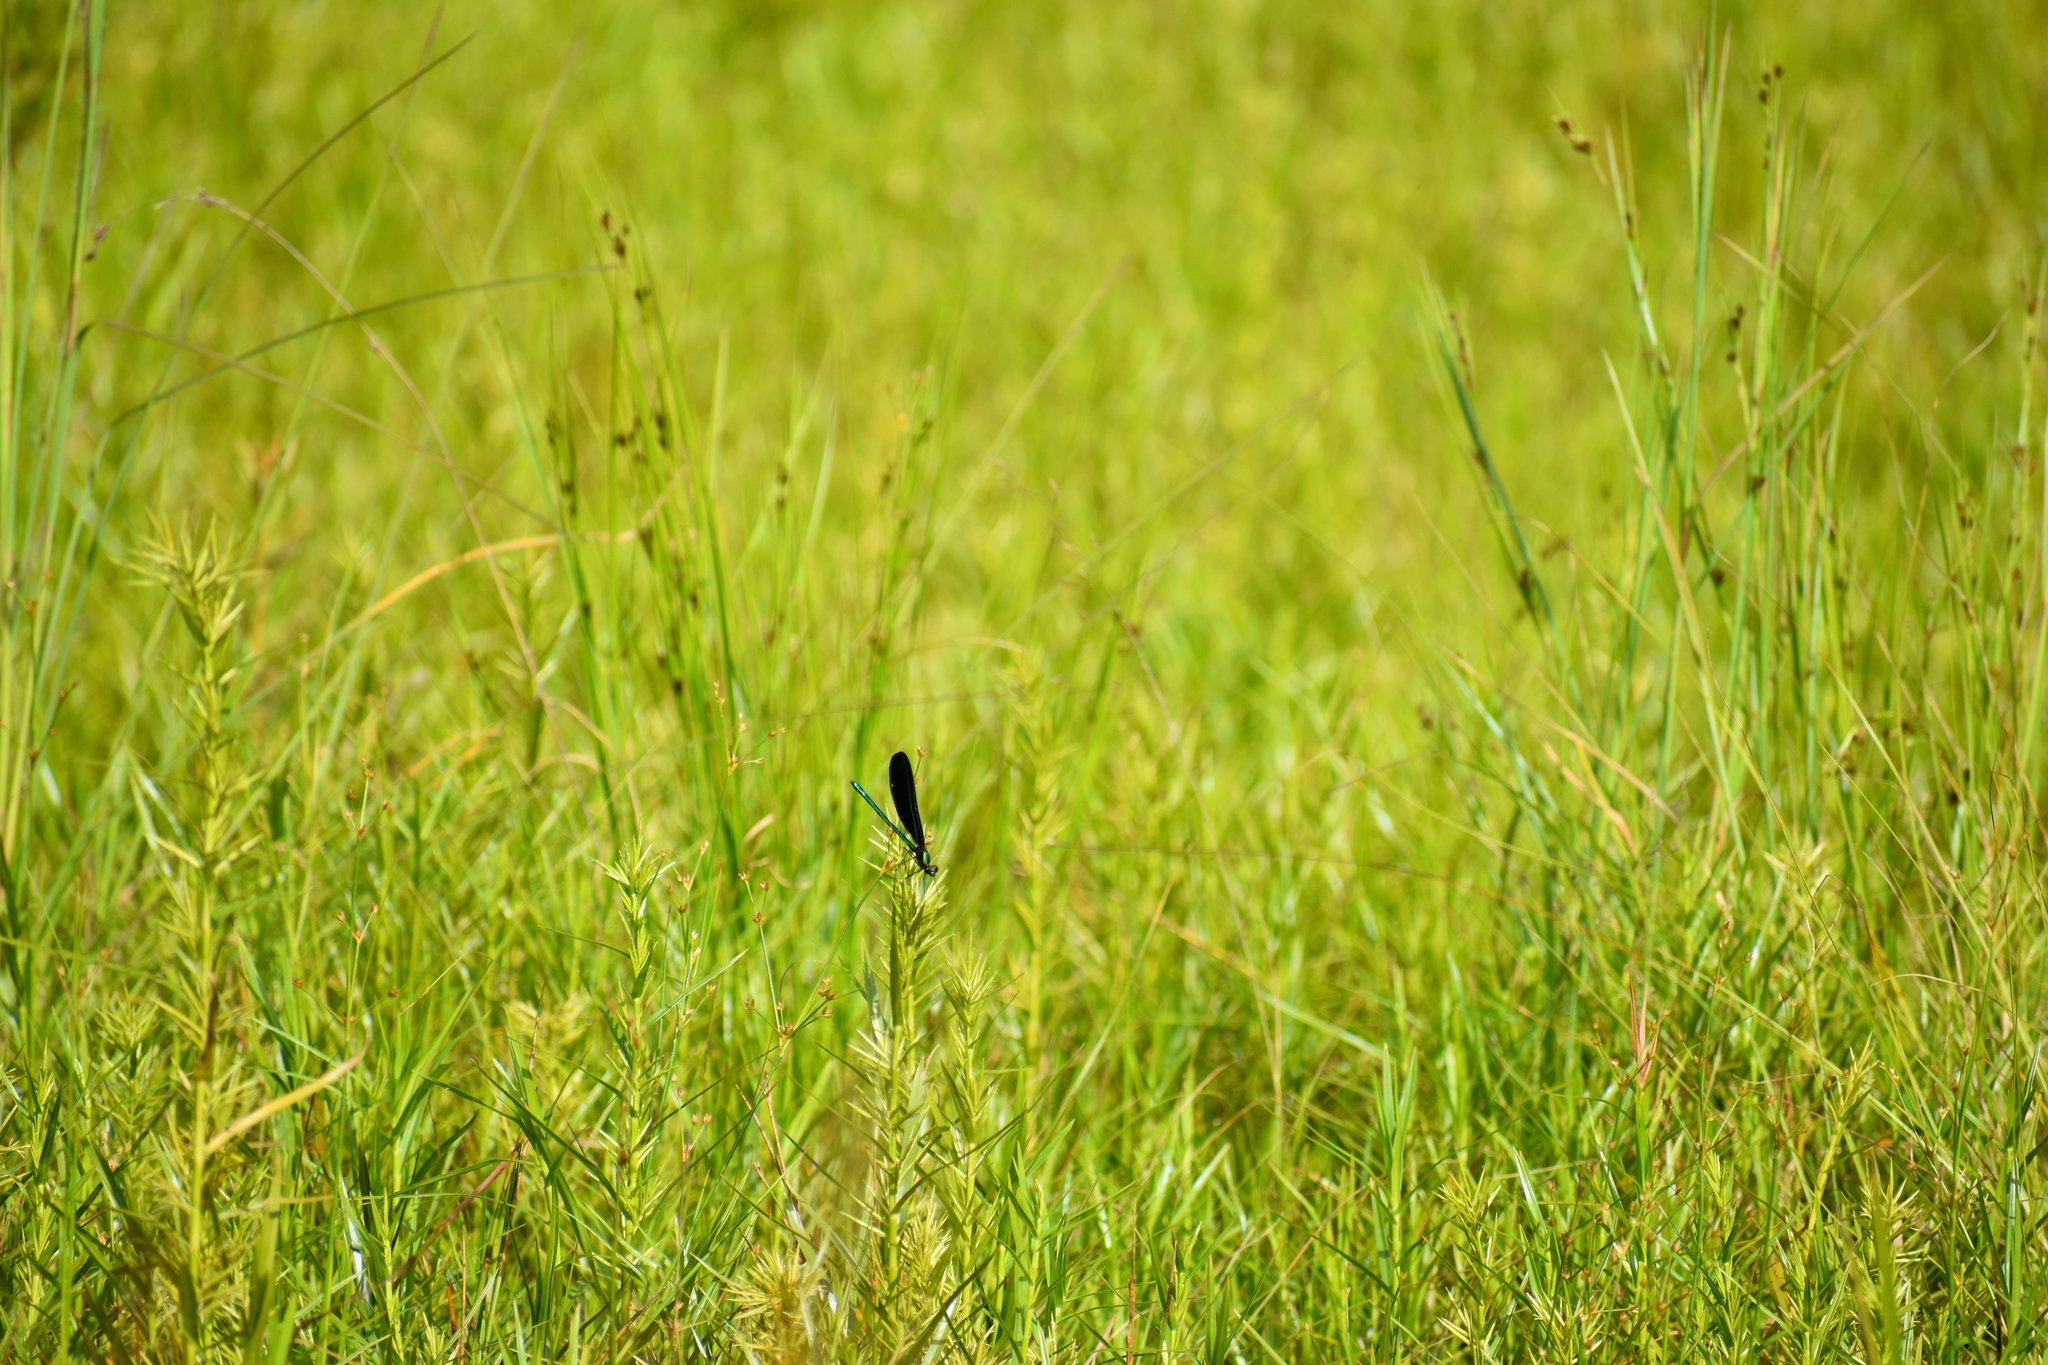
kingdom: Animalia
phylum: Arthropoda
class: Insecta
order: Odonata
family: Calopterygidae
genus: Calopteryx
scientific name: Calopteryx maculata
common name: Ebony jewelwing
